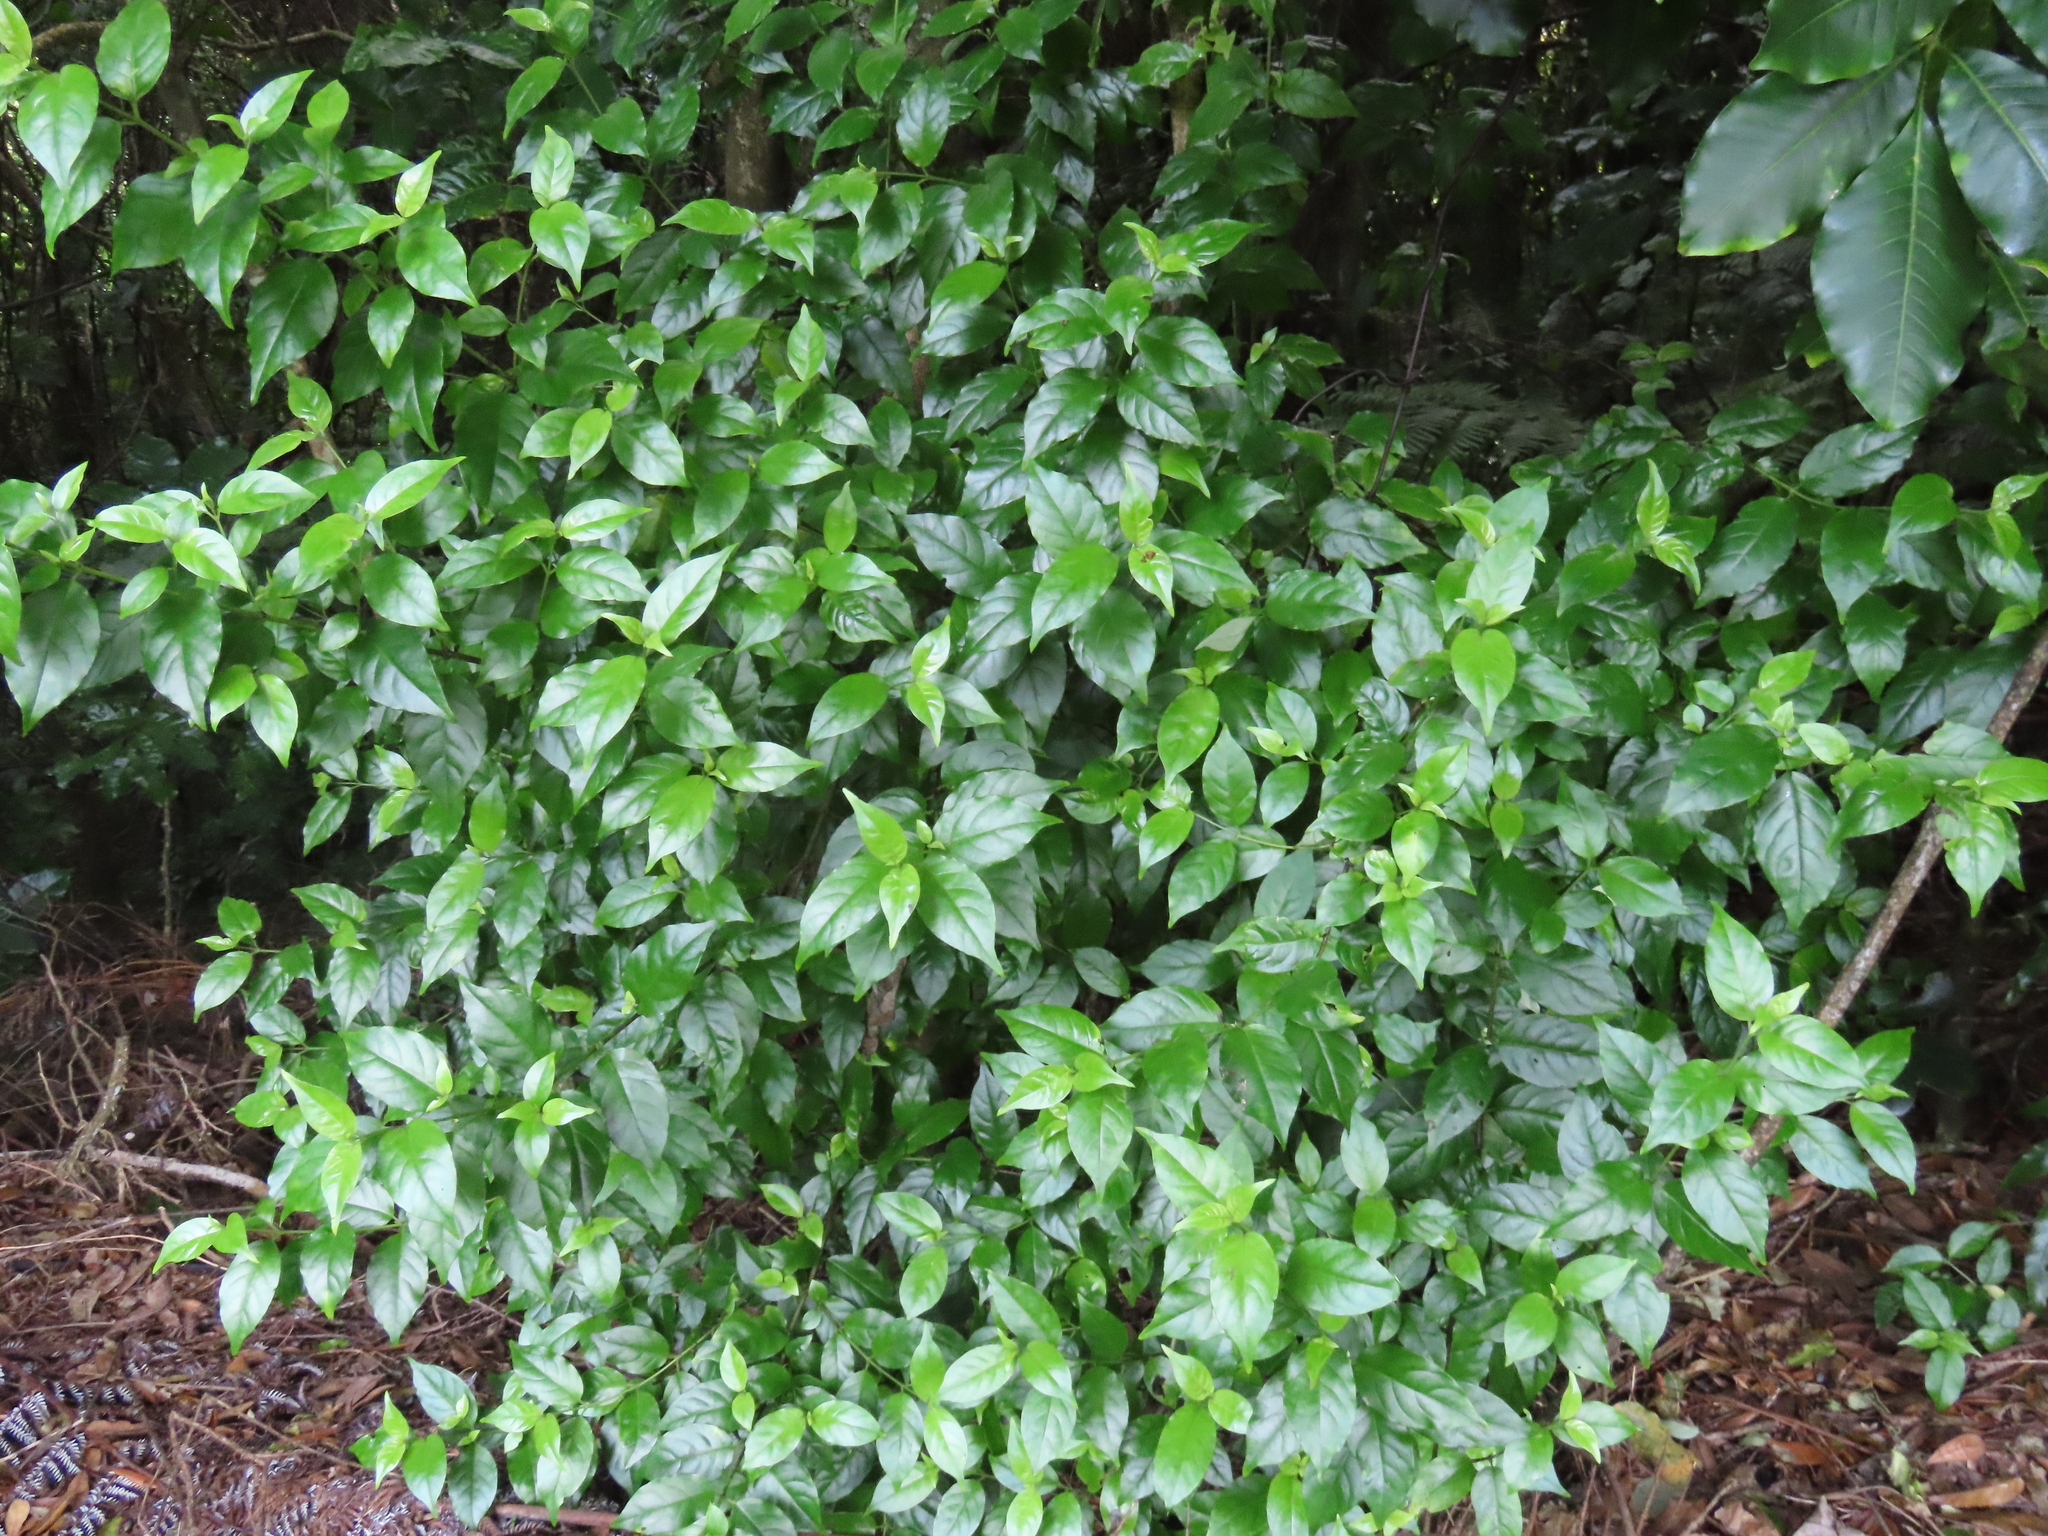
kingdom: Plantae
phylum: Tracheophyta
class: Magnoliopsida
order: Gentianales
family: Loganiaceae
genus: Geniostoma
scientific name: Geniostoma ligustrifolium
